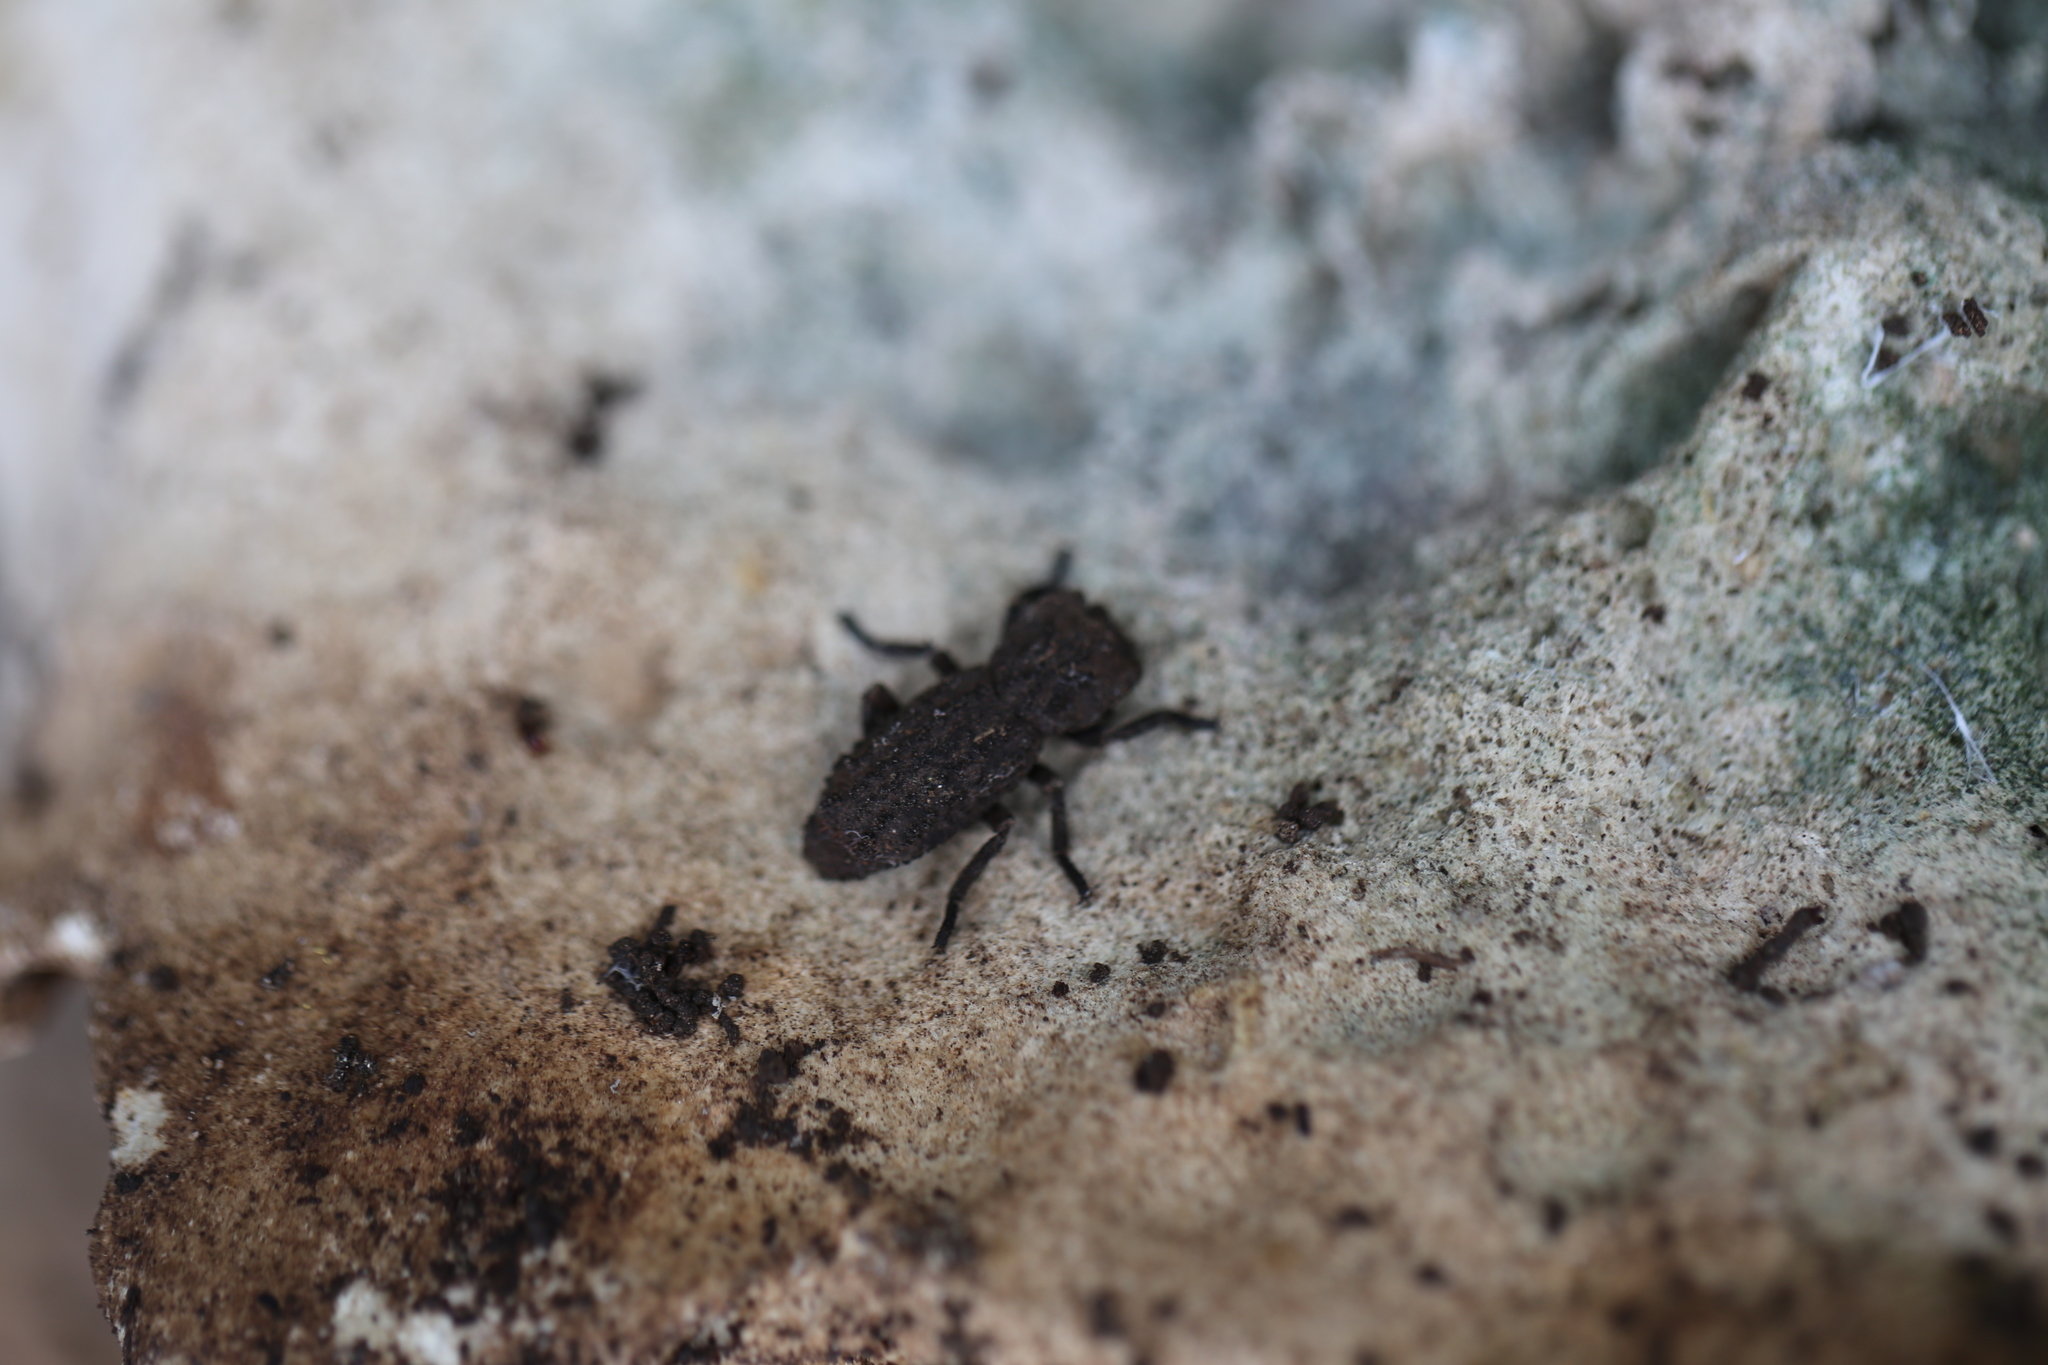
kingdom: Animalia
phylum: Arthropoda
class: Insecta
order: Coleoptera
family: Zopheridae
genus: Sesaspis
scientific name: Sesaspis
